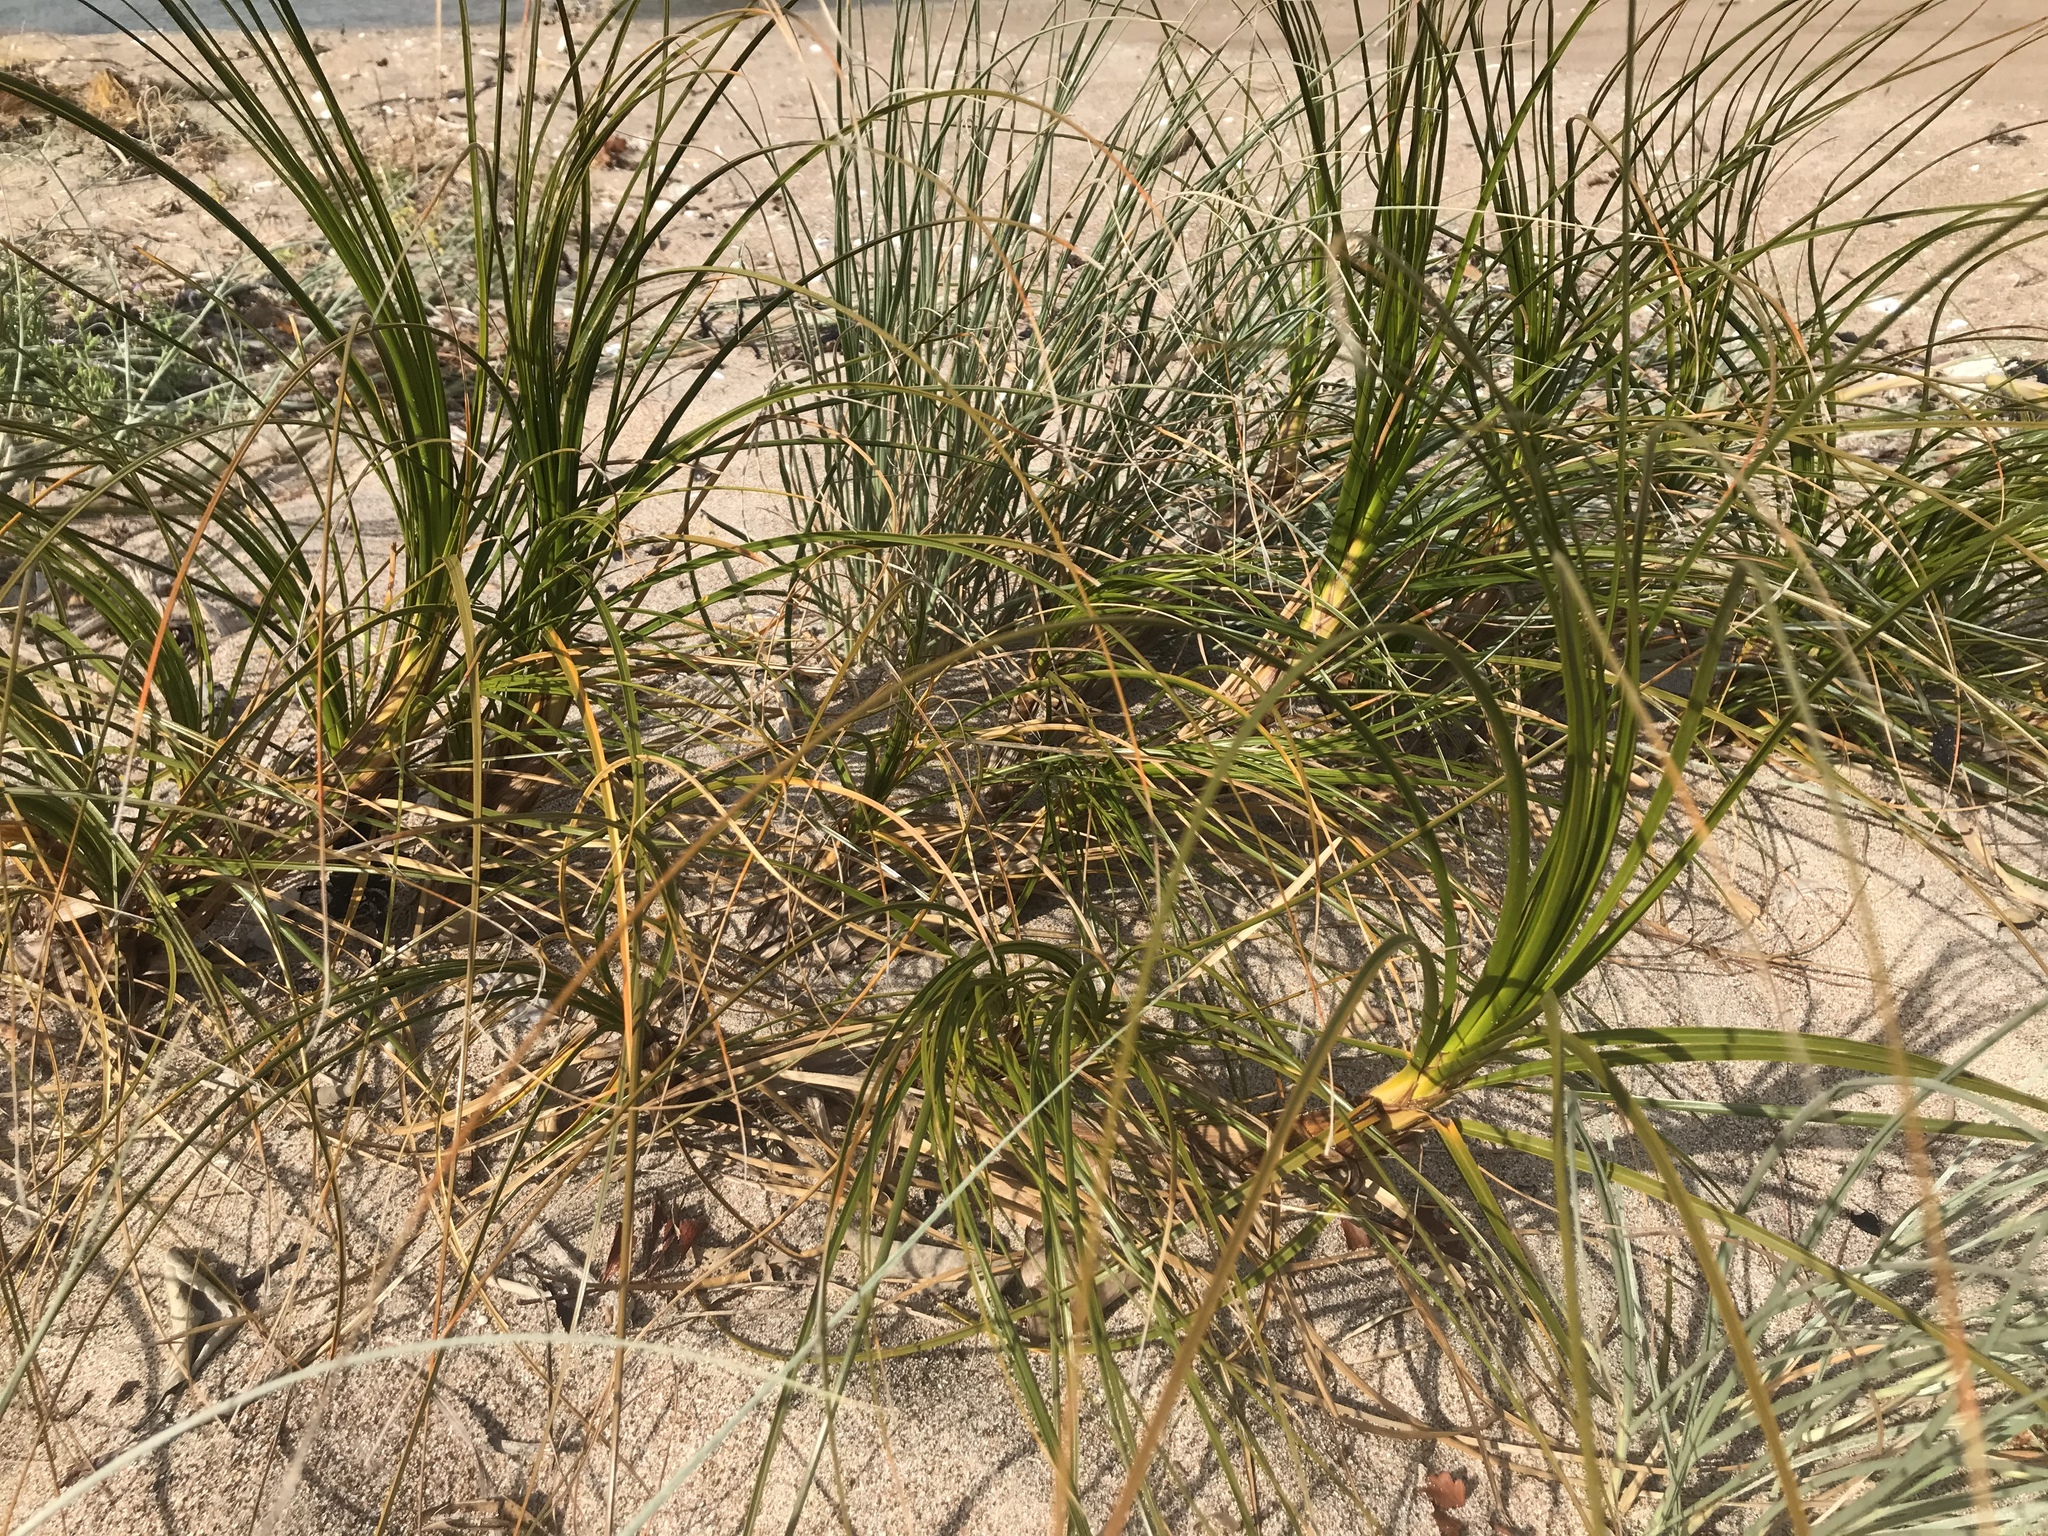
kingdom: Plantae
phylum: Tracheophyta
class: Liliopsida
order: Poales
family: Cyperaceae
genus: Ficinia
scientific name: Ficinia spiralis
